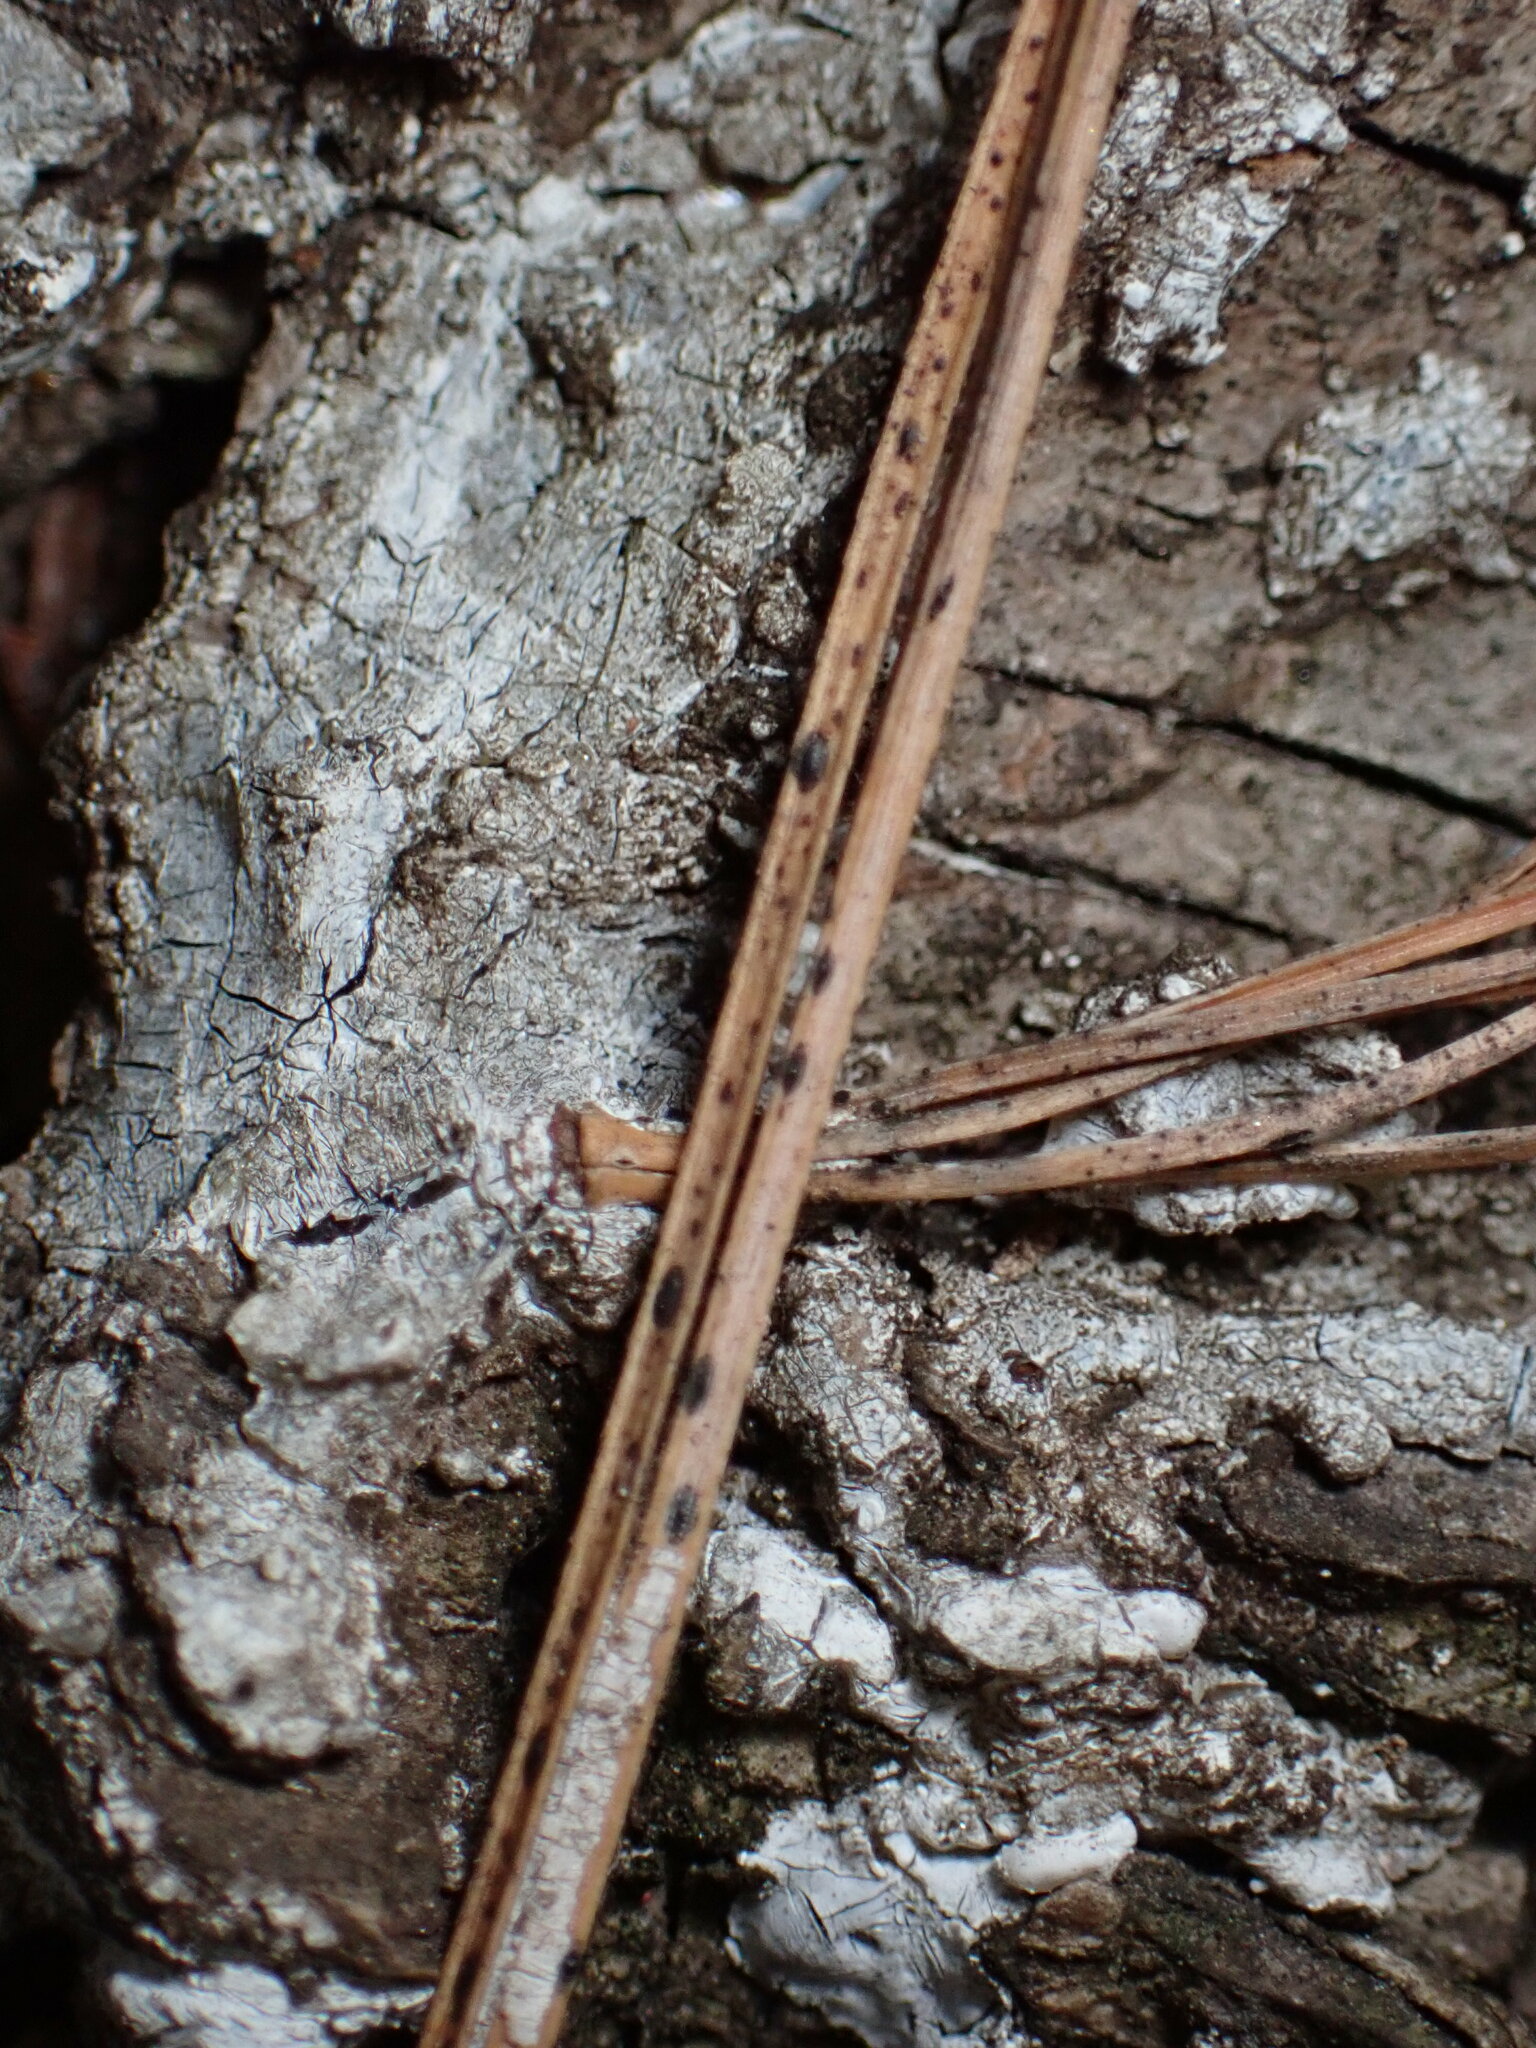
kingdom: Fungi
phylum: Ascomycota
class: Leotiomycetes
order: Rhytismatales
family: Rhytismataceae
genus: Lophodermium
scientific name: Lophodermium pinastri
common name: Pine needle split
